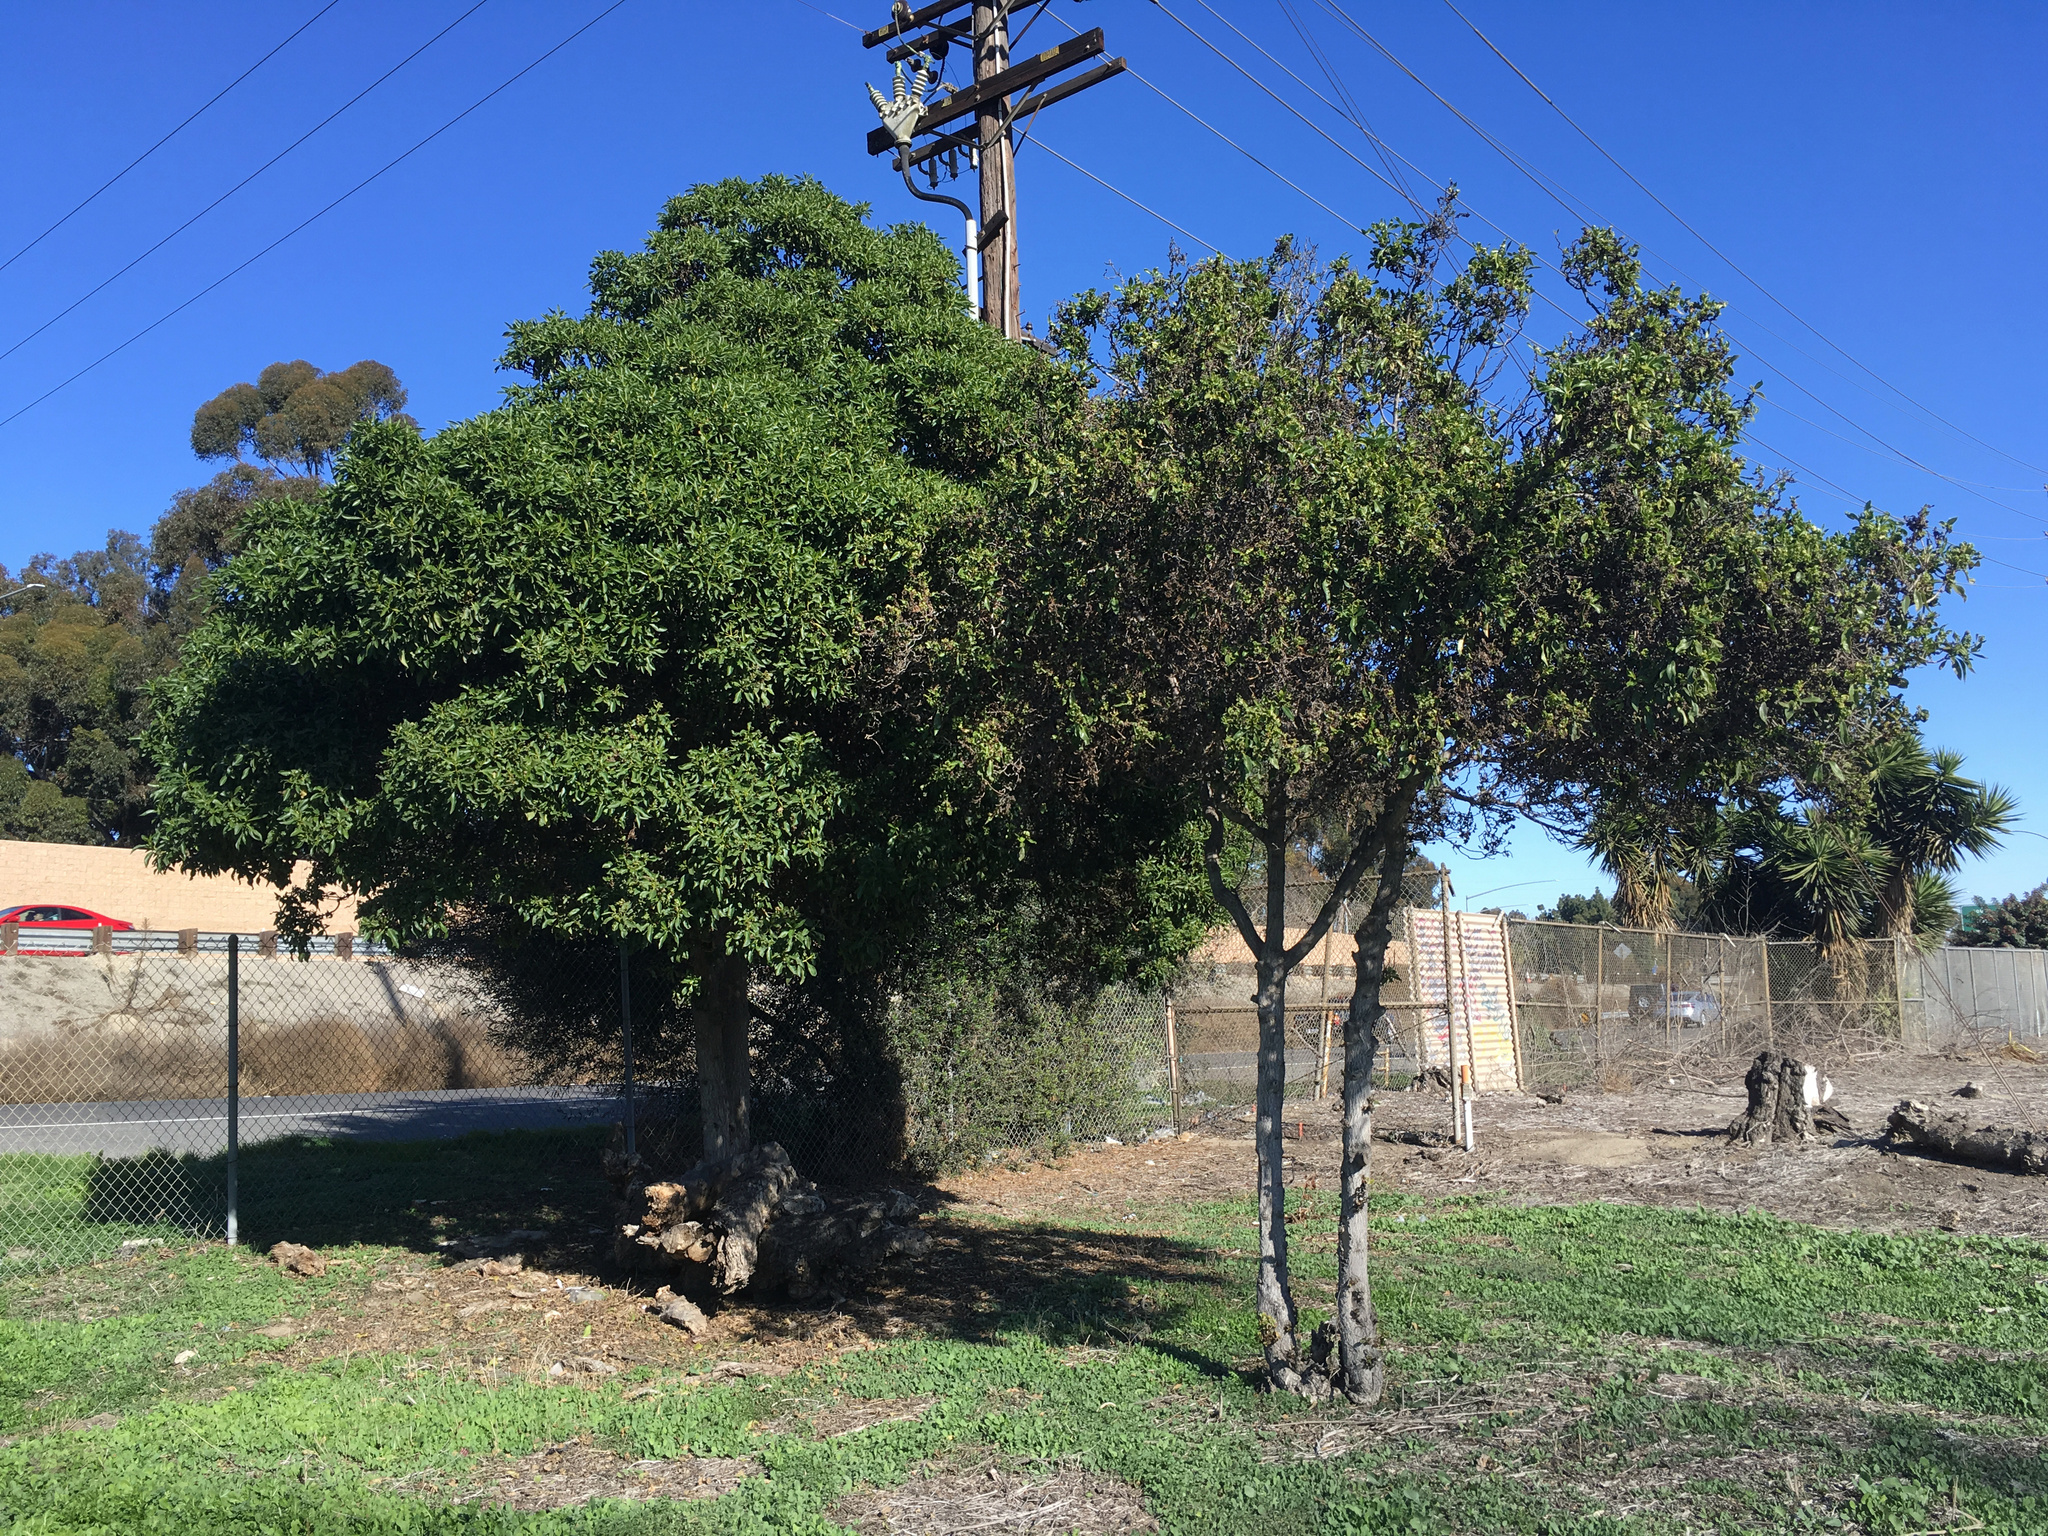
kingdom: Plantae
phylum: Tracheophyta
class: Magnoliopsida
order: Lamiales
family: Scrophulariaceae
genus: Myoporum
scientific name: Myoporum laetum
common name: Ngaio tree
